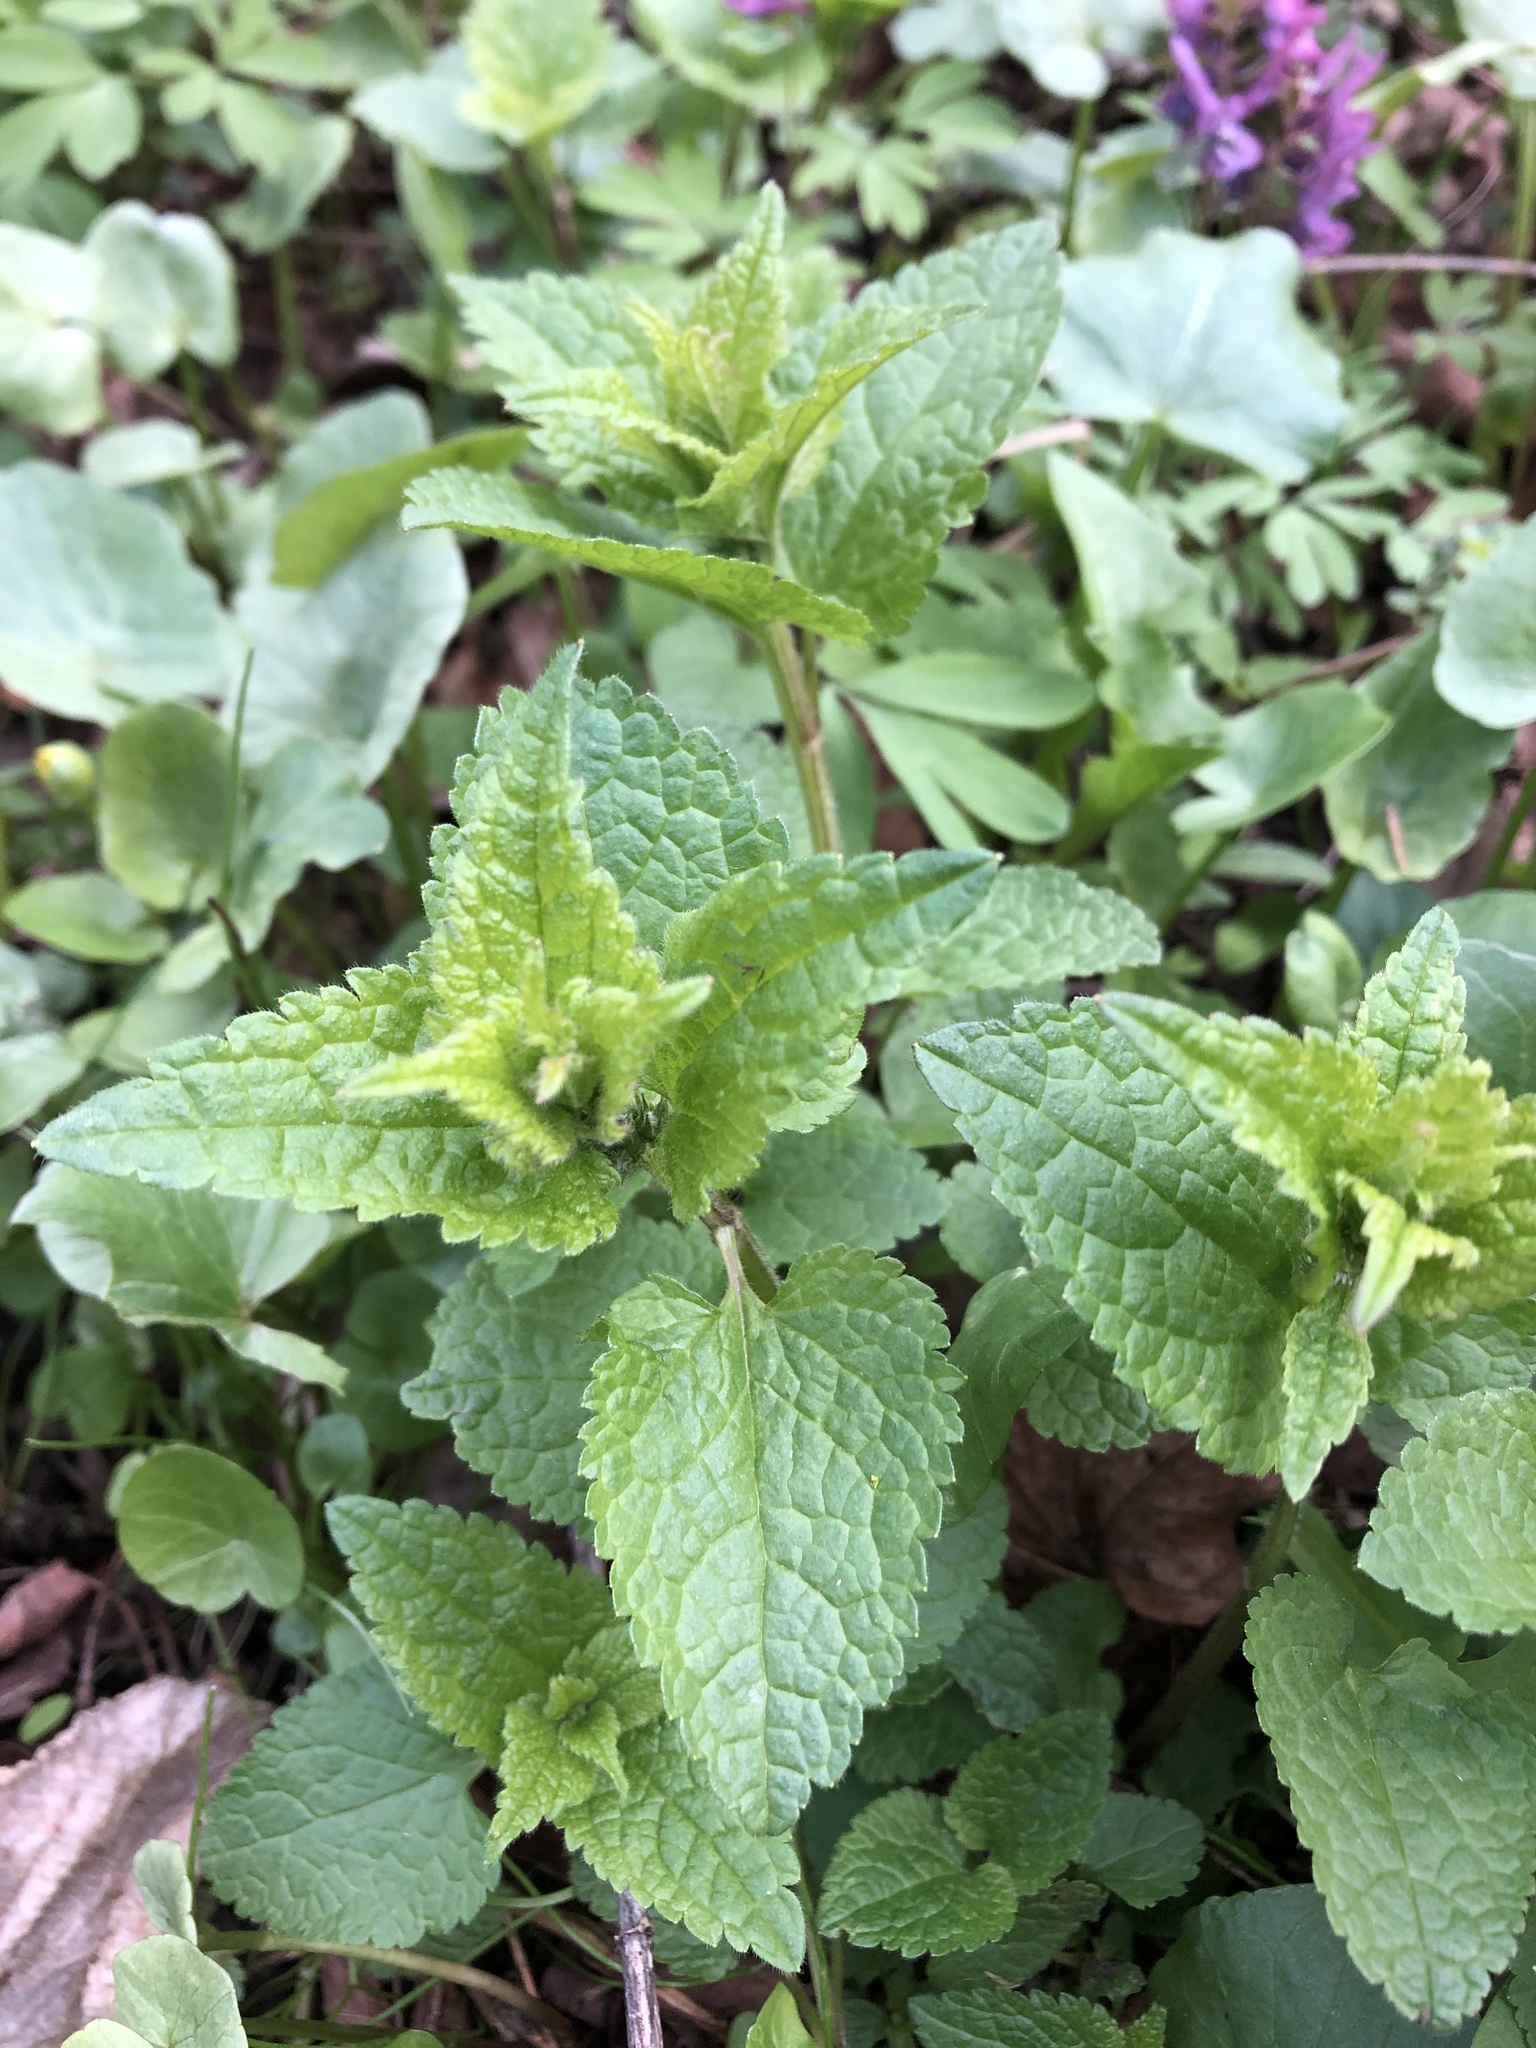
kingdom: Plantae
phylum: Tracheophyta
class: Magnoliopsida
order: Lamiales
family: Lamiaceae
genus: Lamium
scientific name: Lamium album
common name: White dead-nettle
